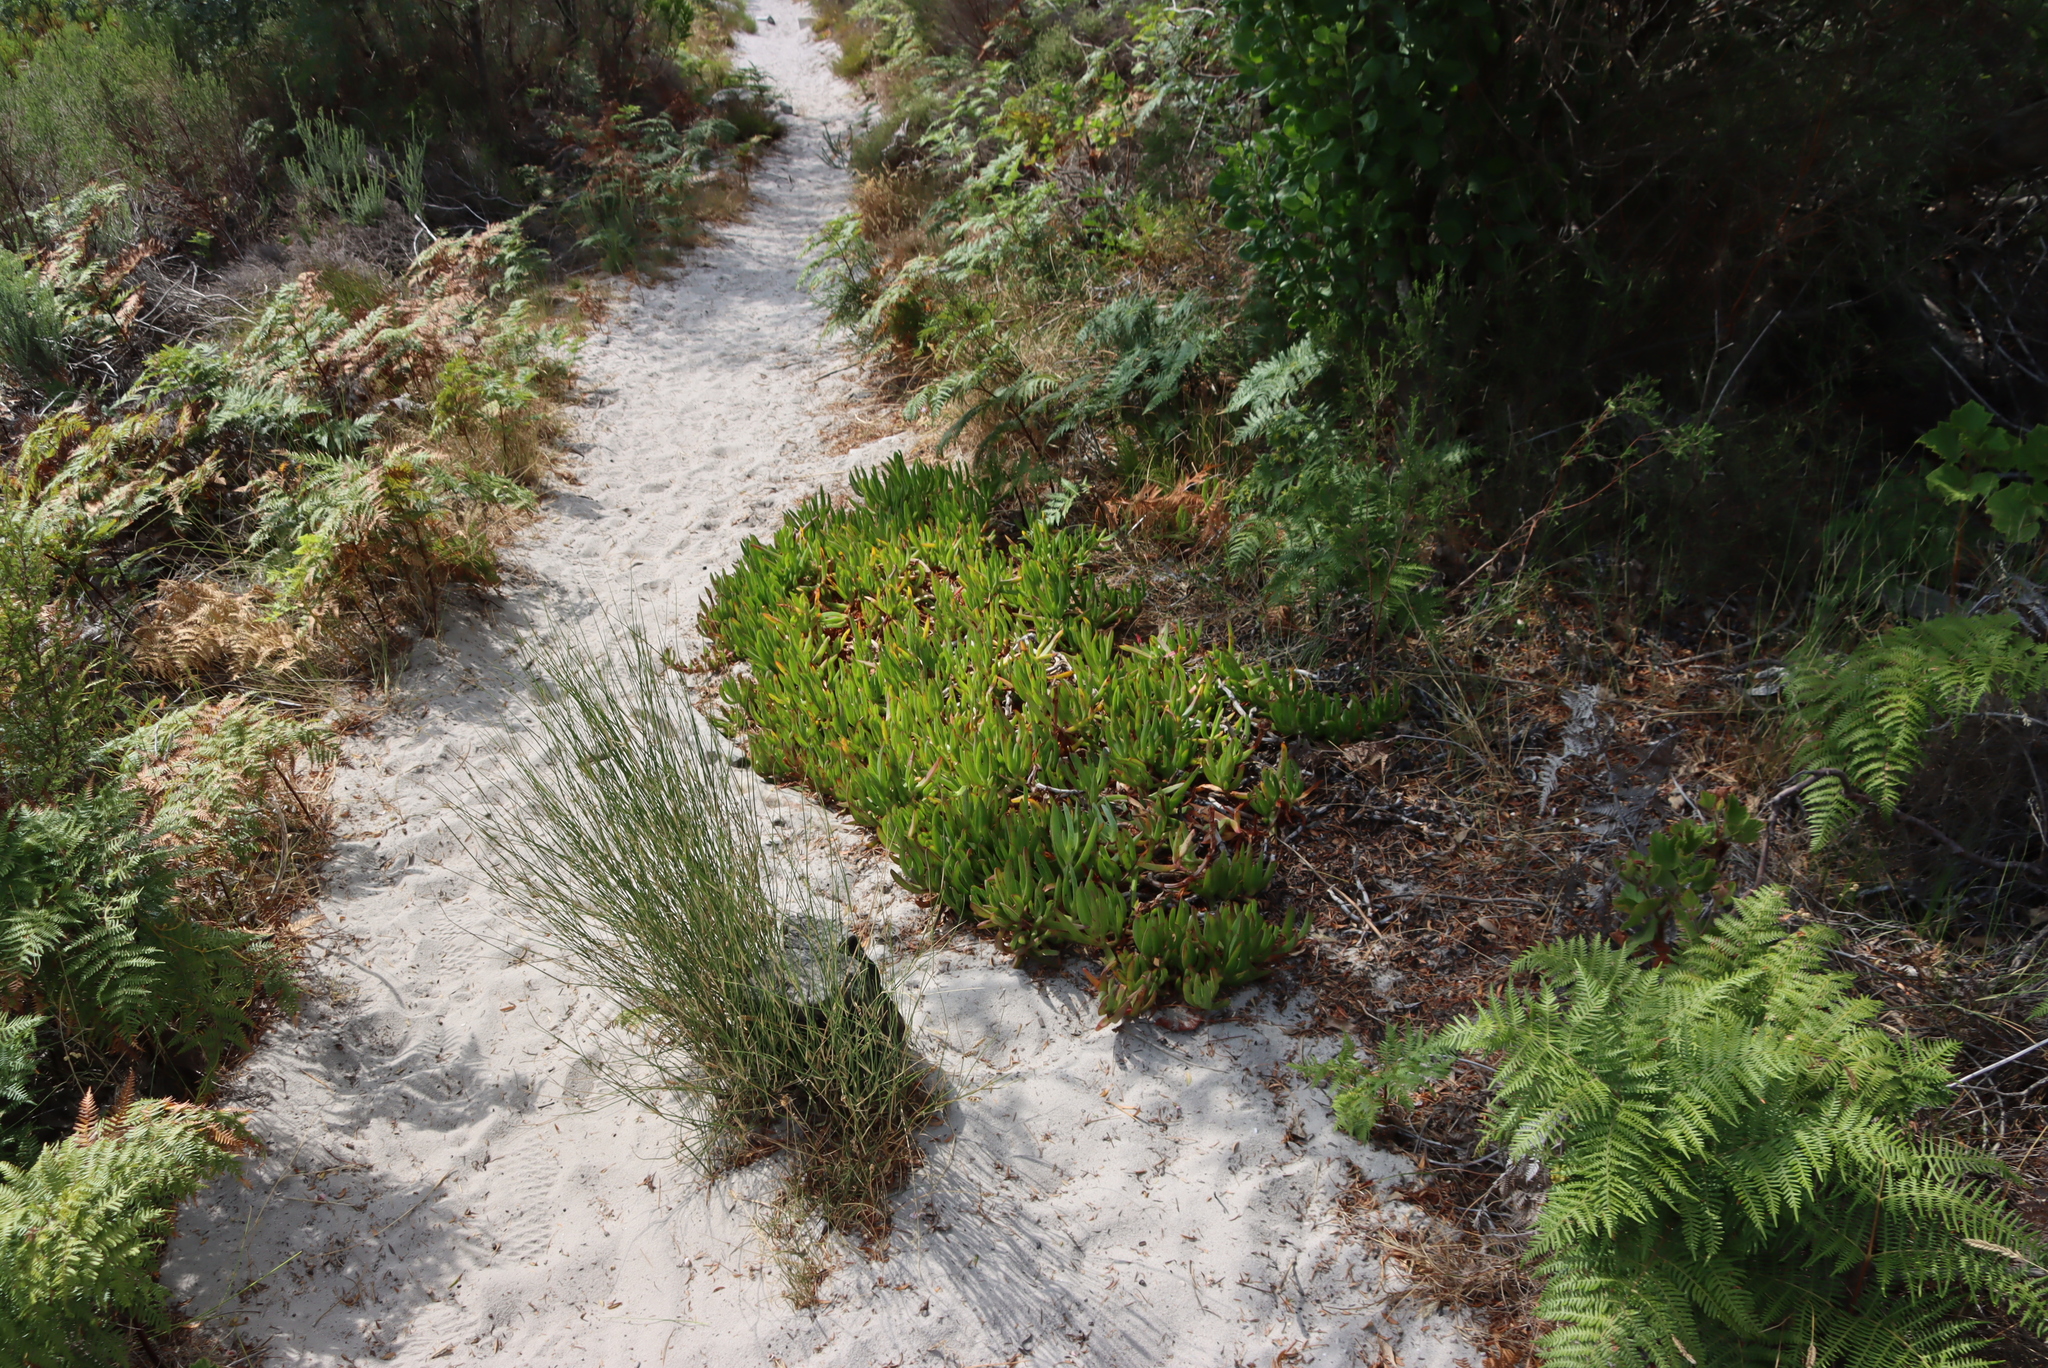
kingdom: Plantae
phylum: Tracheophyta
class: Magnoliopsida
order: Caryophyllales
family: Aizoaceae
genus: Carpobrotus
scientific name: Carpobrotus edulis
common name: Hottentot-fig
